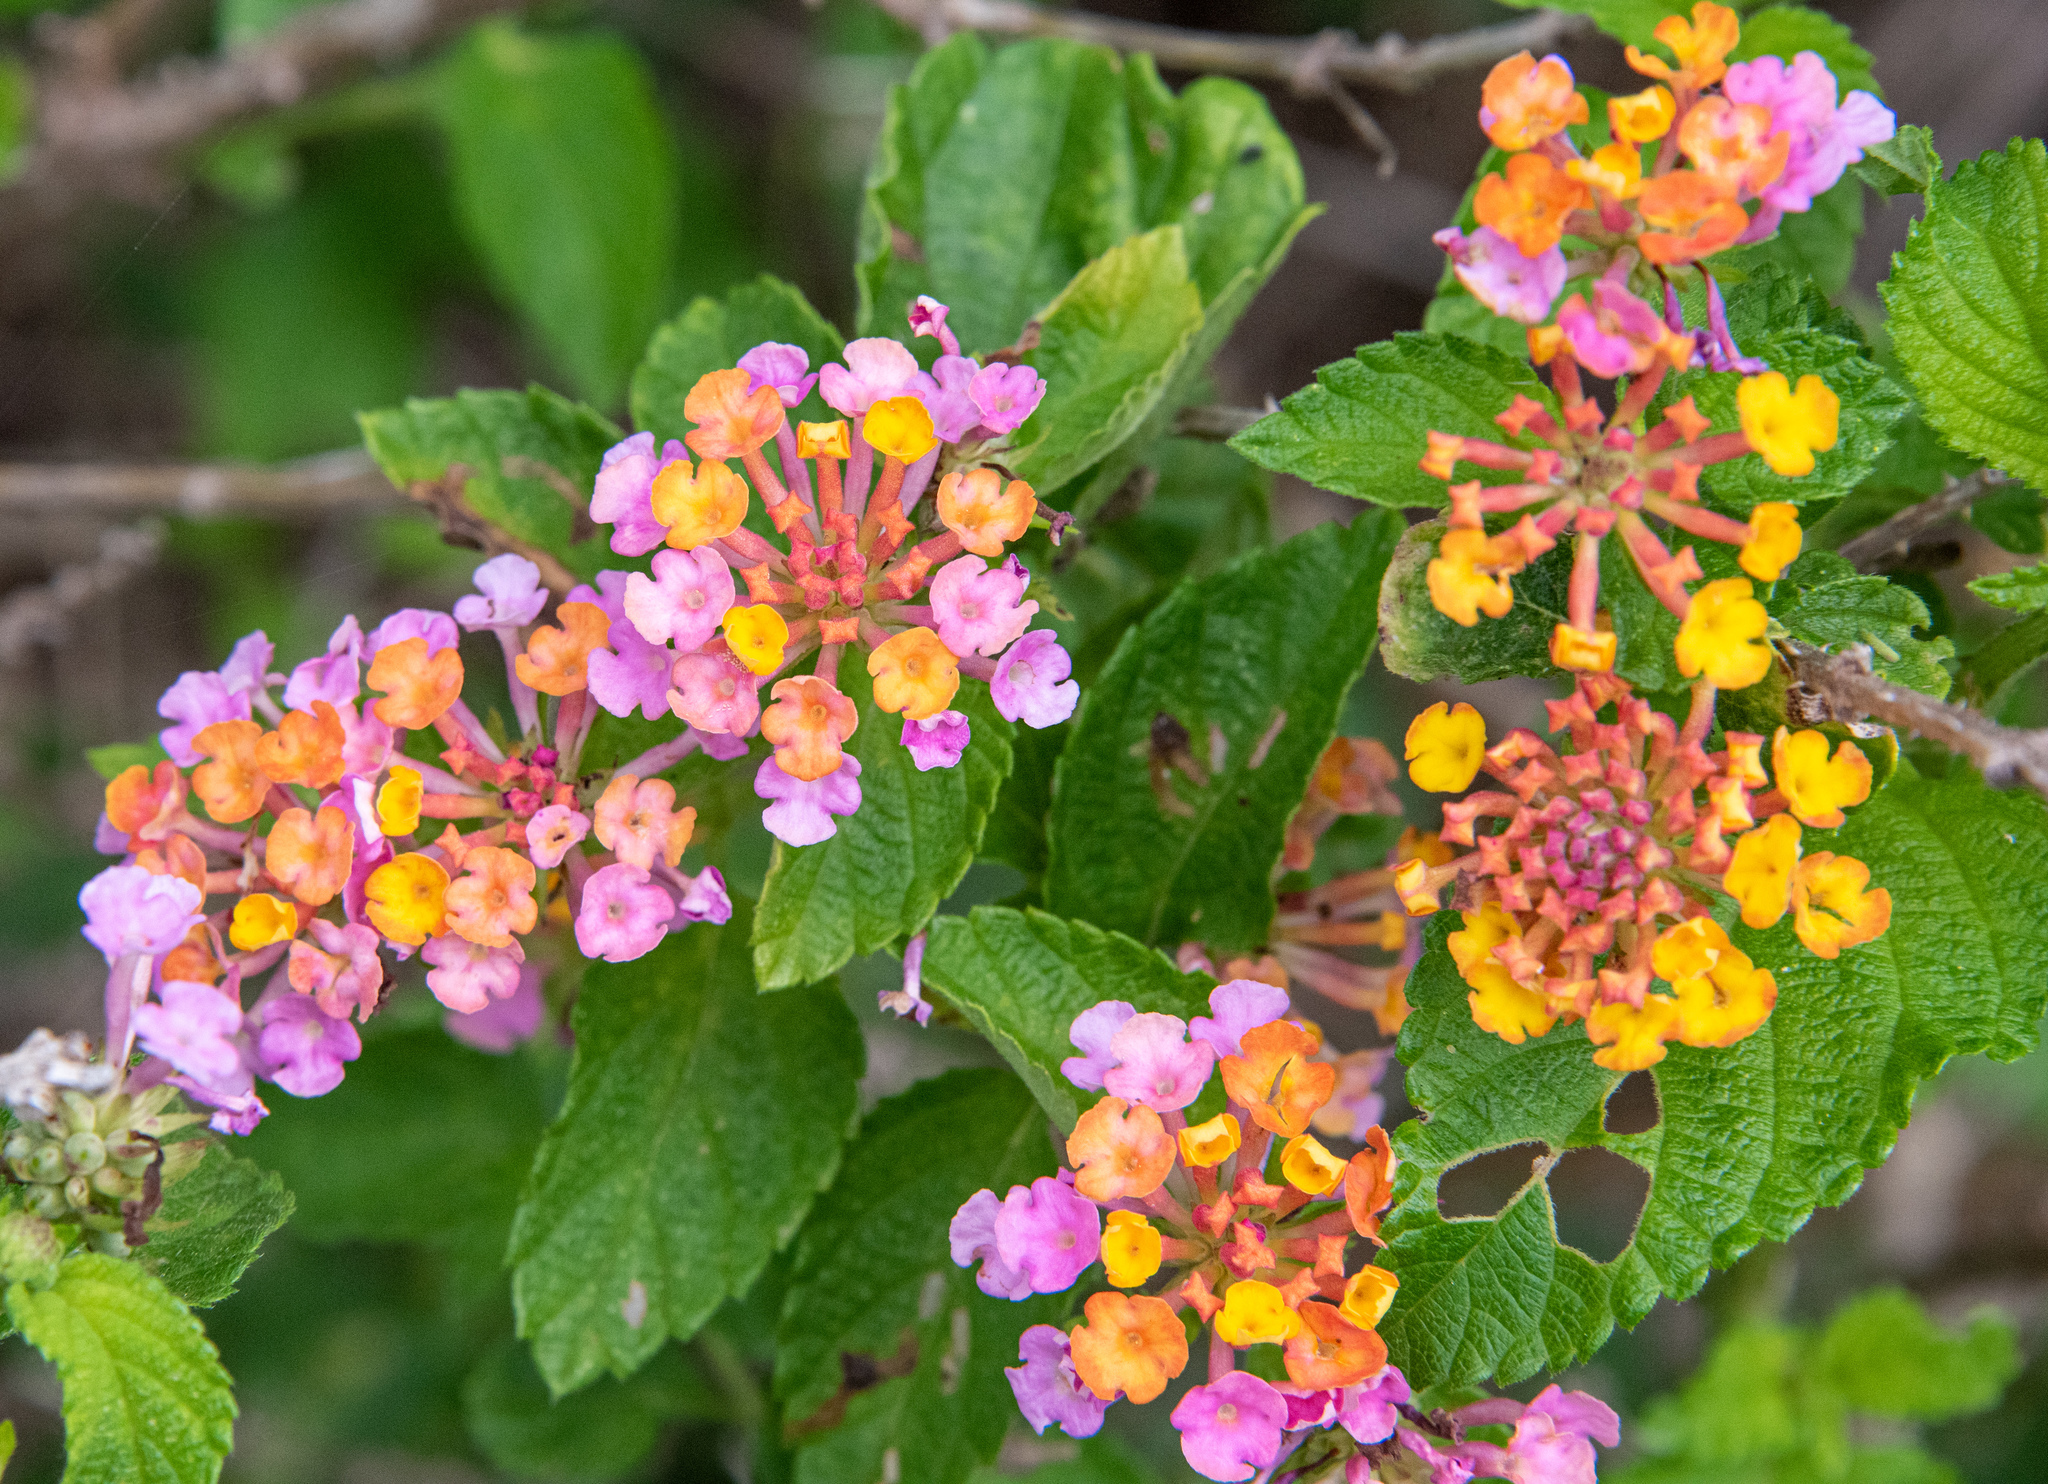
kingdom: Plantae
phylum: Tracheophyta
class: Magnoliopsida
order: Lamiales
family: Verbenaceae
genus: Lantana
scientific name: Lantana camara
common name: Lantana
